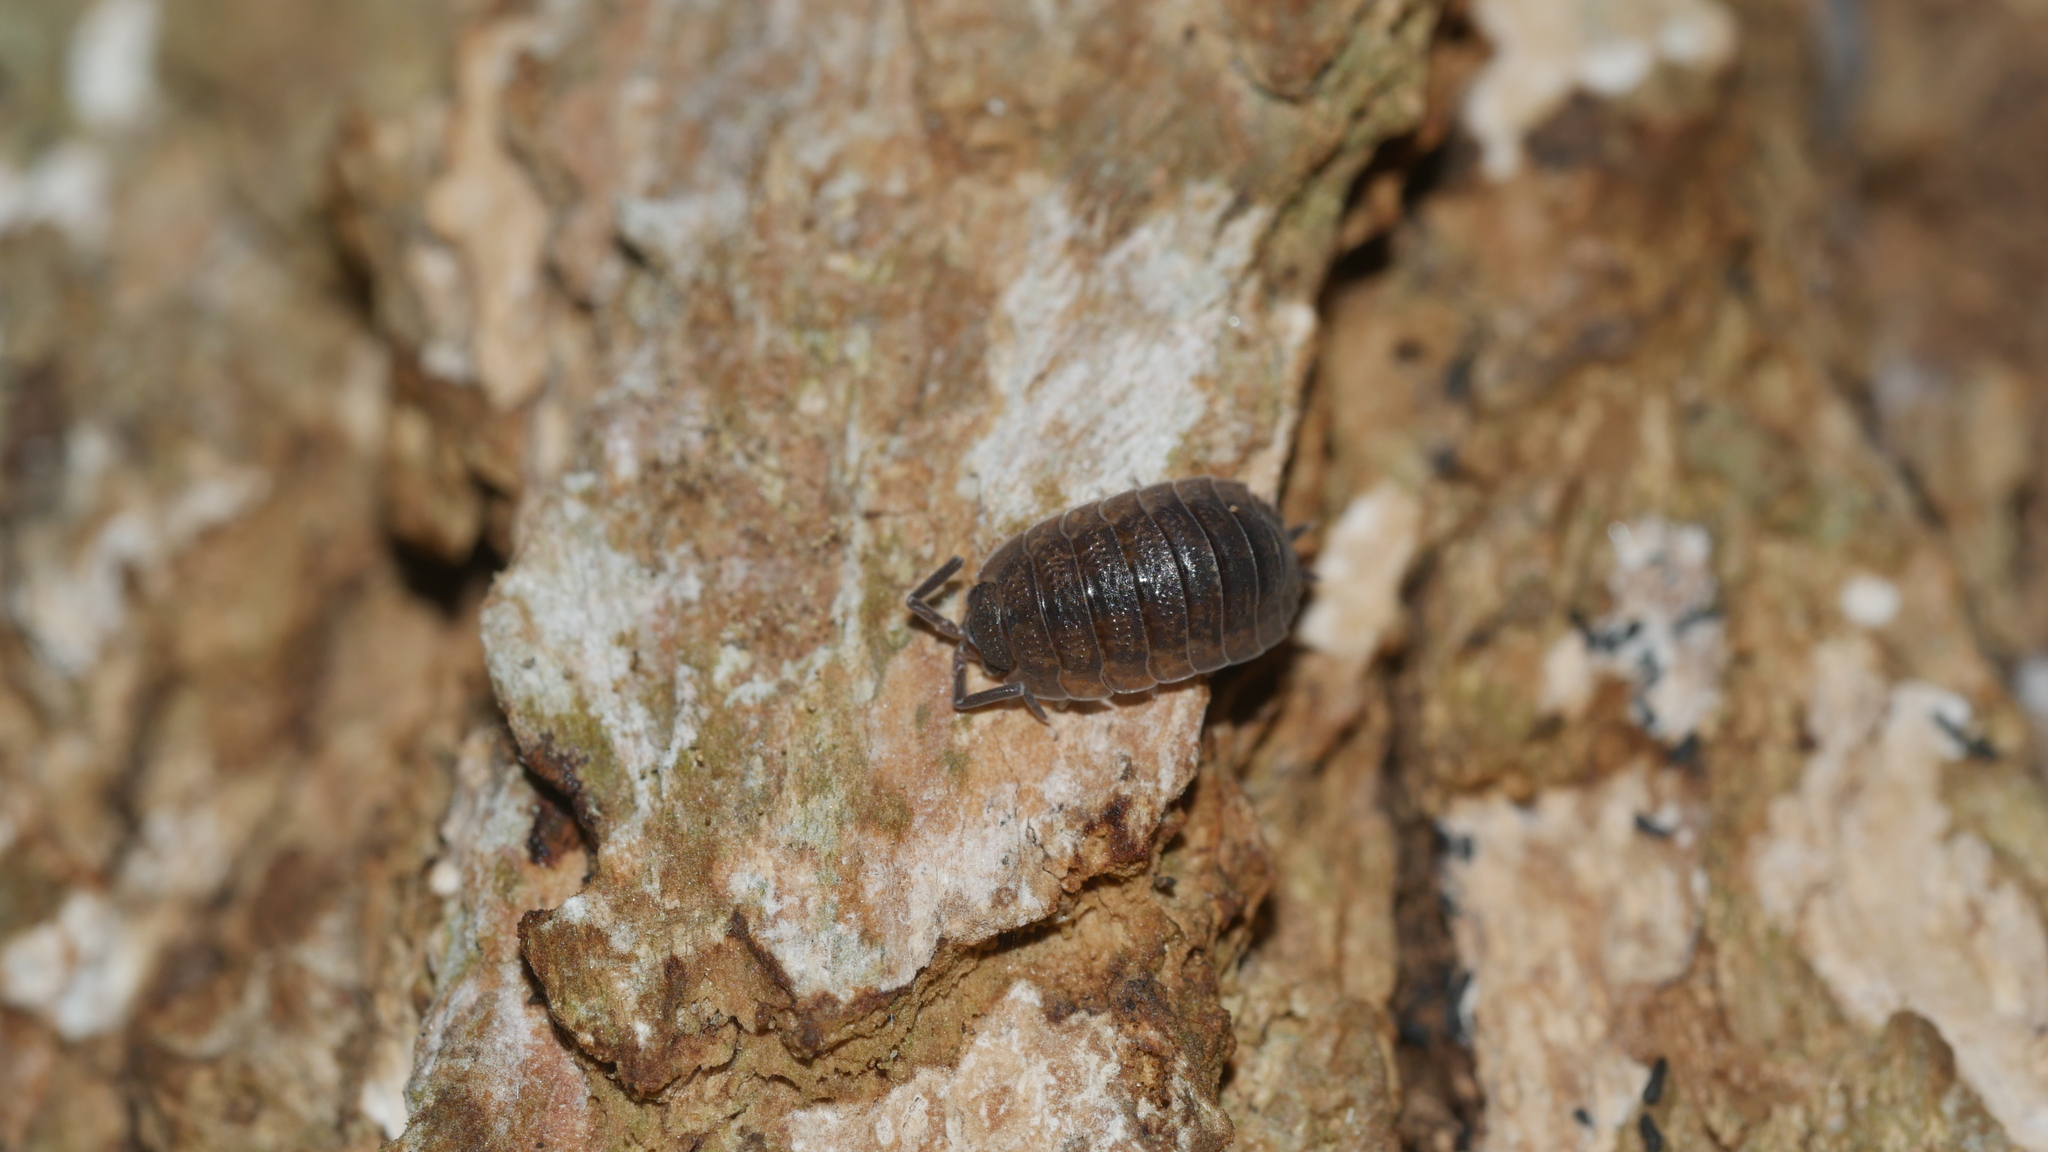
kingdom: Animalia
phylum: Arthropoda
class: Malacostraca
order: Isopoda
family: Porcellionidae
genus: Porcellio
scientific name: Porcellio scaber
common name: Common rough woodlouse
